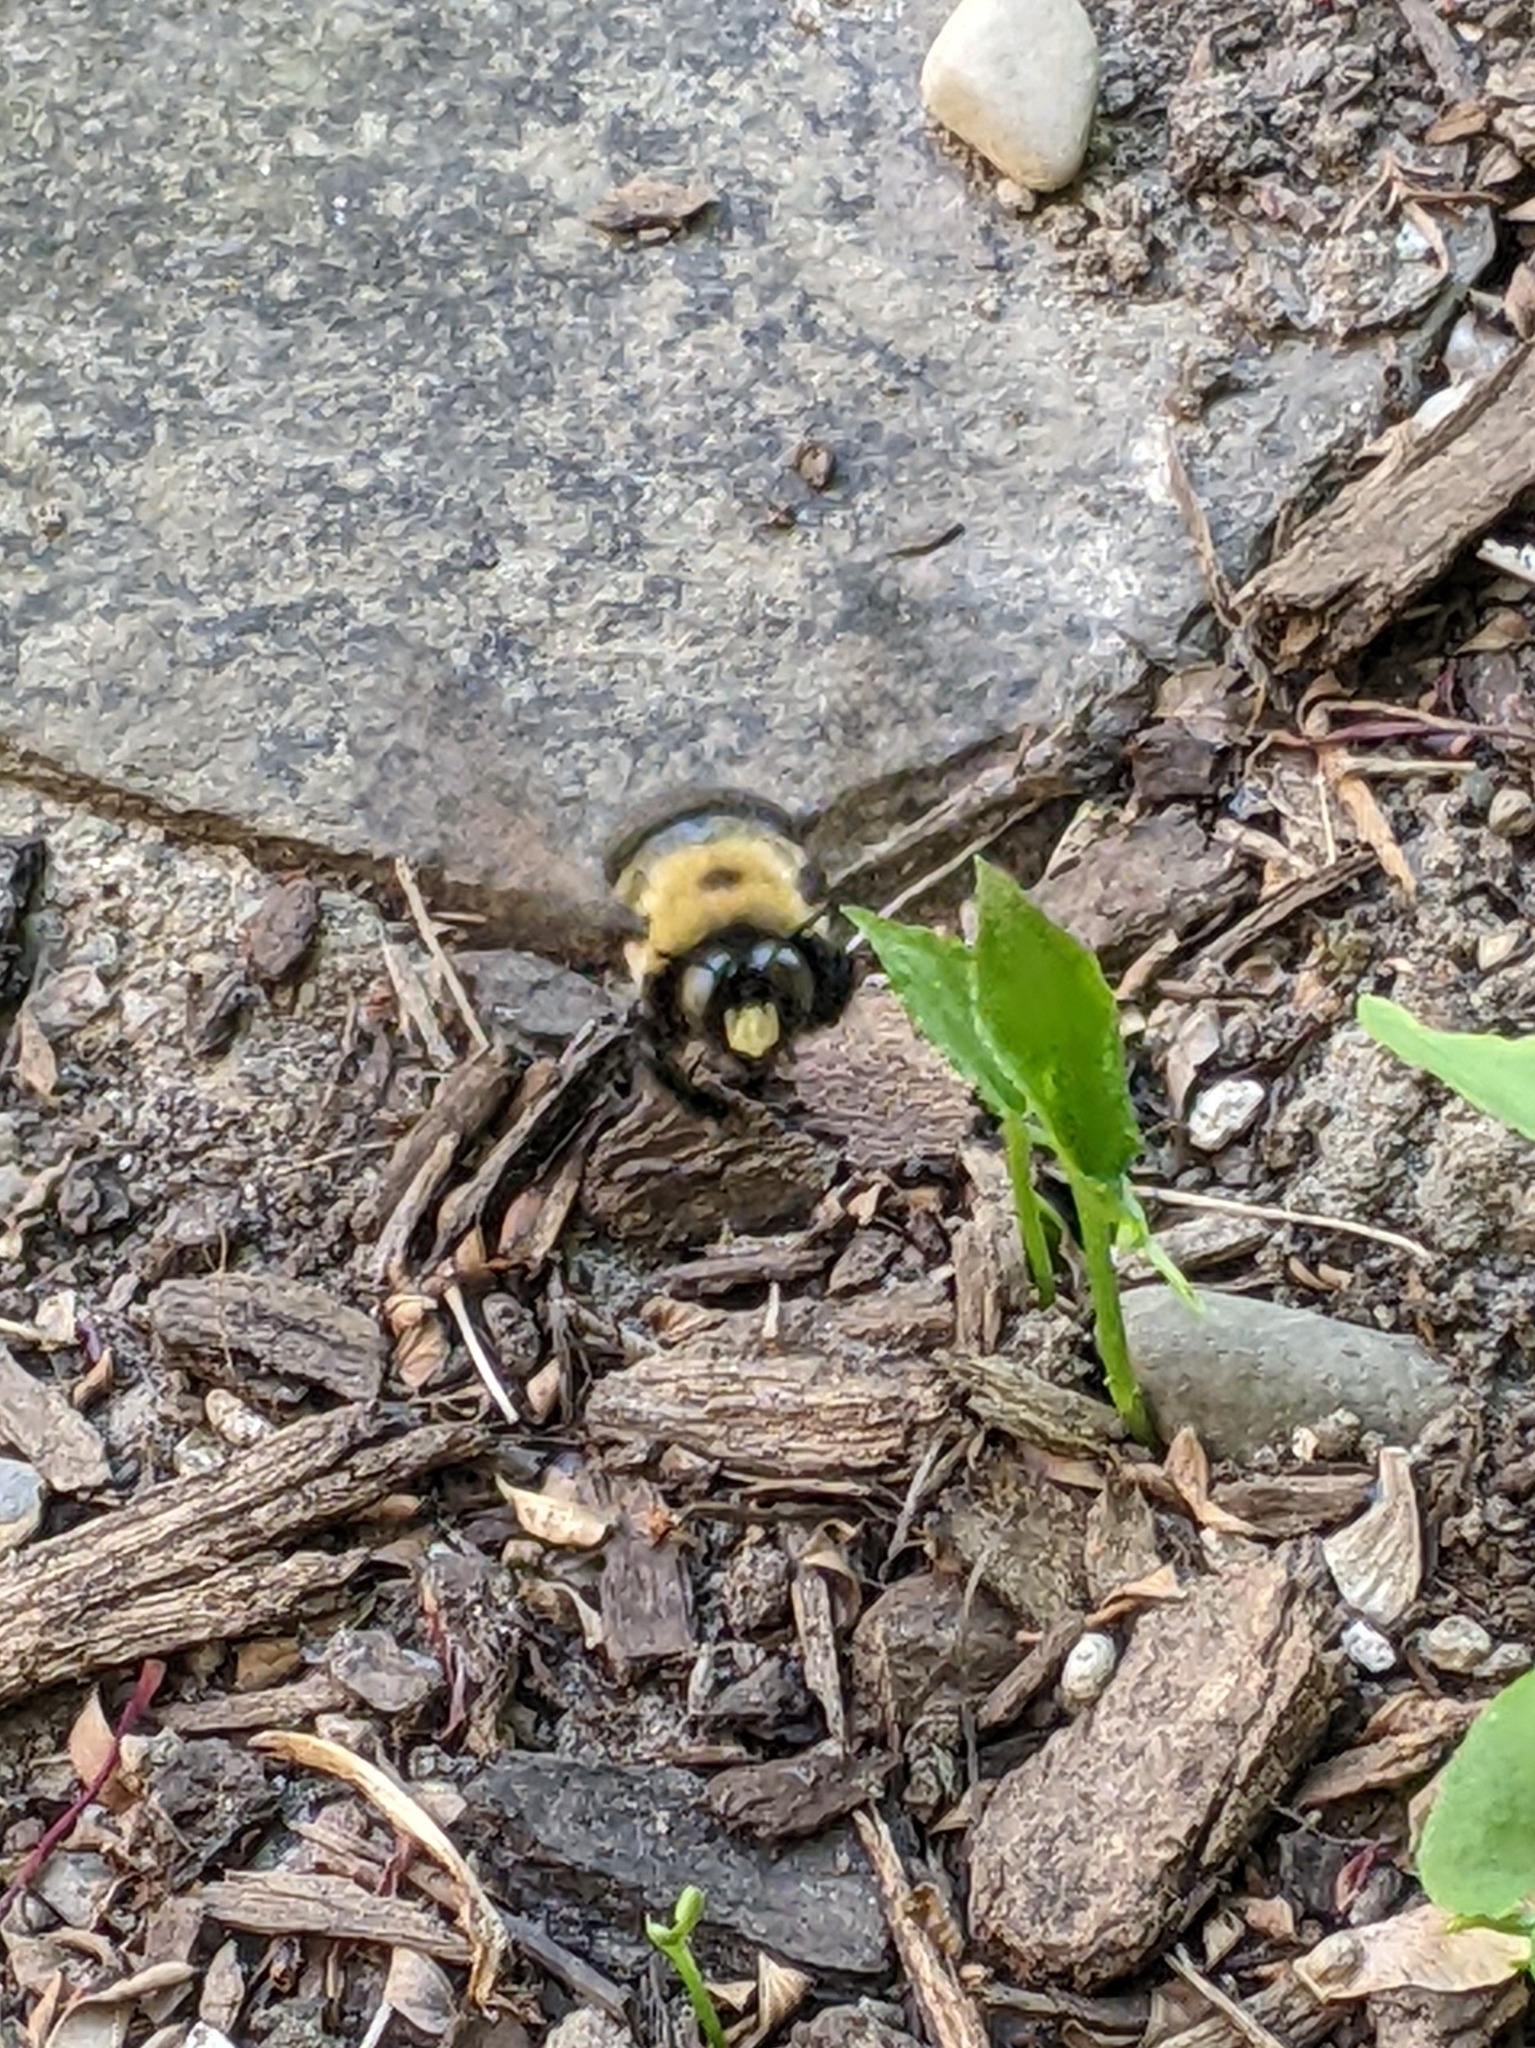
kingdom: Animalia
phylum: Arthropoda
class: Insecta
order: Hymenoptera
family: Apidae
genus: Xylocopa
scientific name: Xylocopa virginica
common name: Carpenter bee
